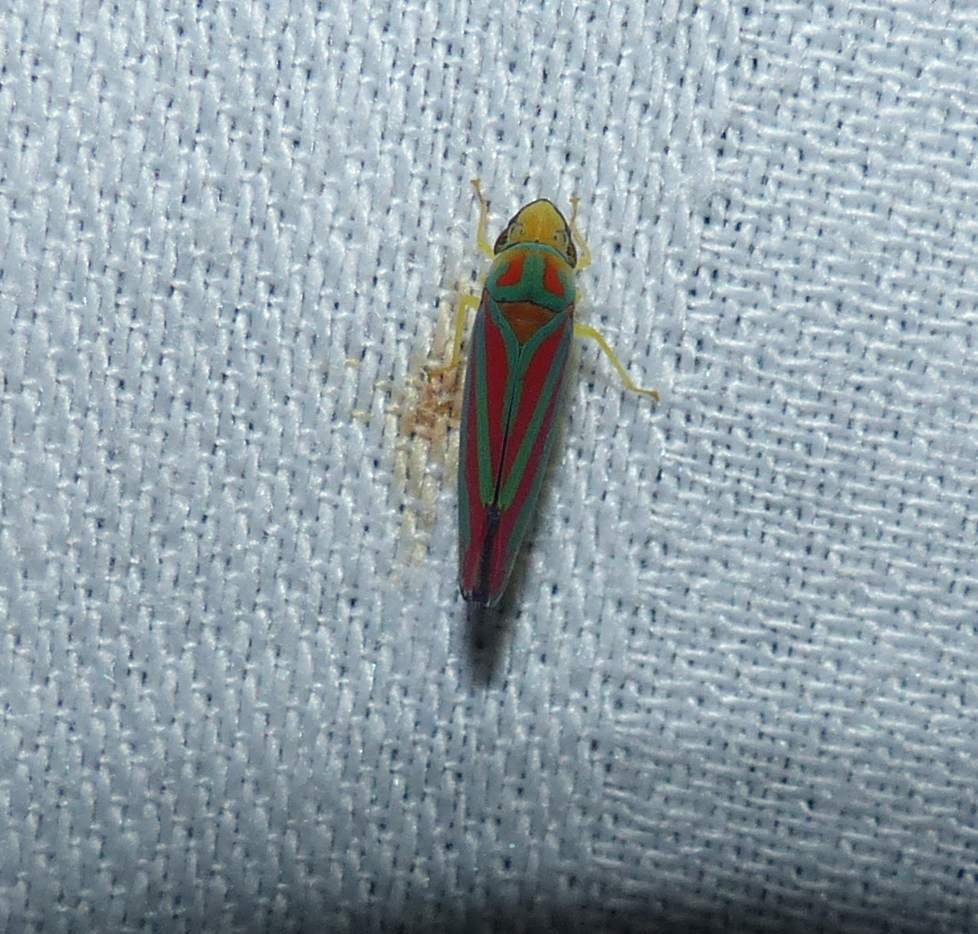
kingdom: Animalia
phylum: Arthropoda
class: Insecta
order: Hemiptera
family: Cicadellidae
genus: Graphocephala
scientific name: Graphocephala coccinea
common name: Candy-striped leafhopper
